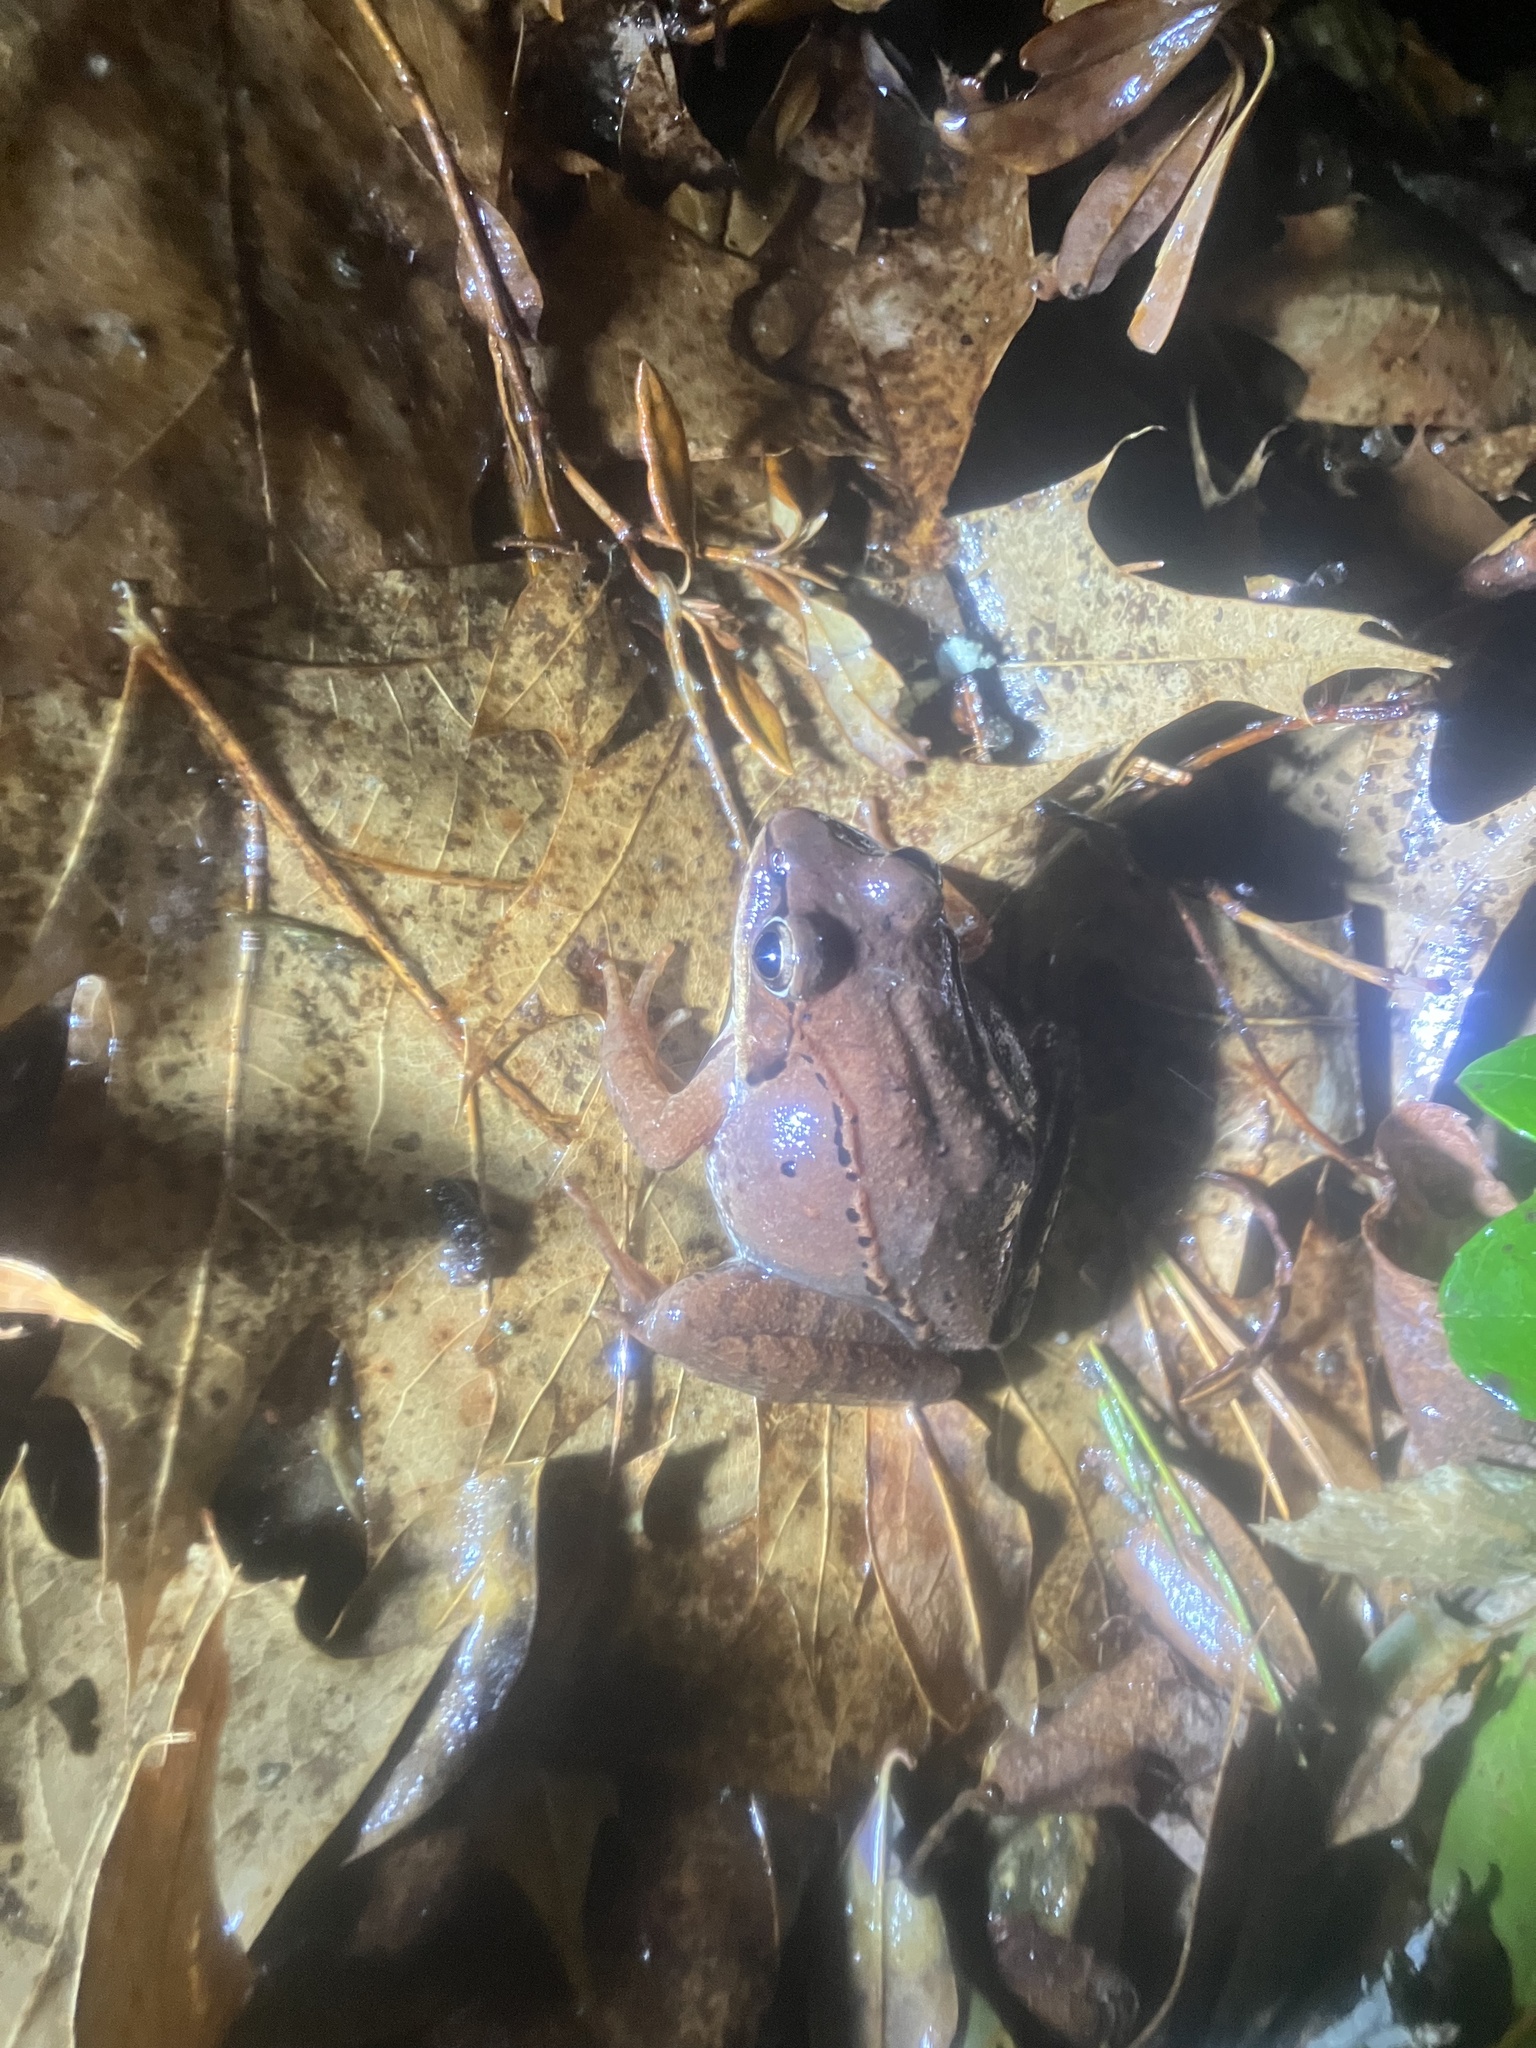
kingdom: Animalia
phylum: Chordata
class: Amphibia
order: Anura
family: Ranidae
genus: Lithobates
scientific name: Lithobates sylvaticus
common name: Wood frog
